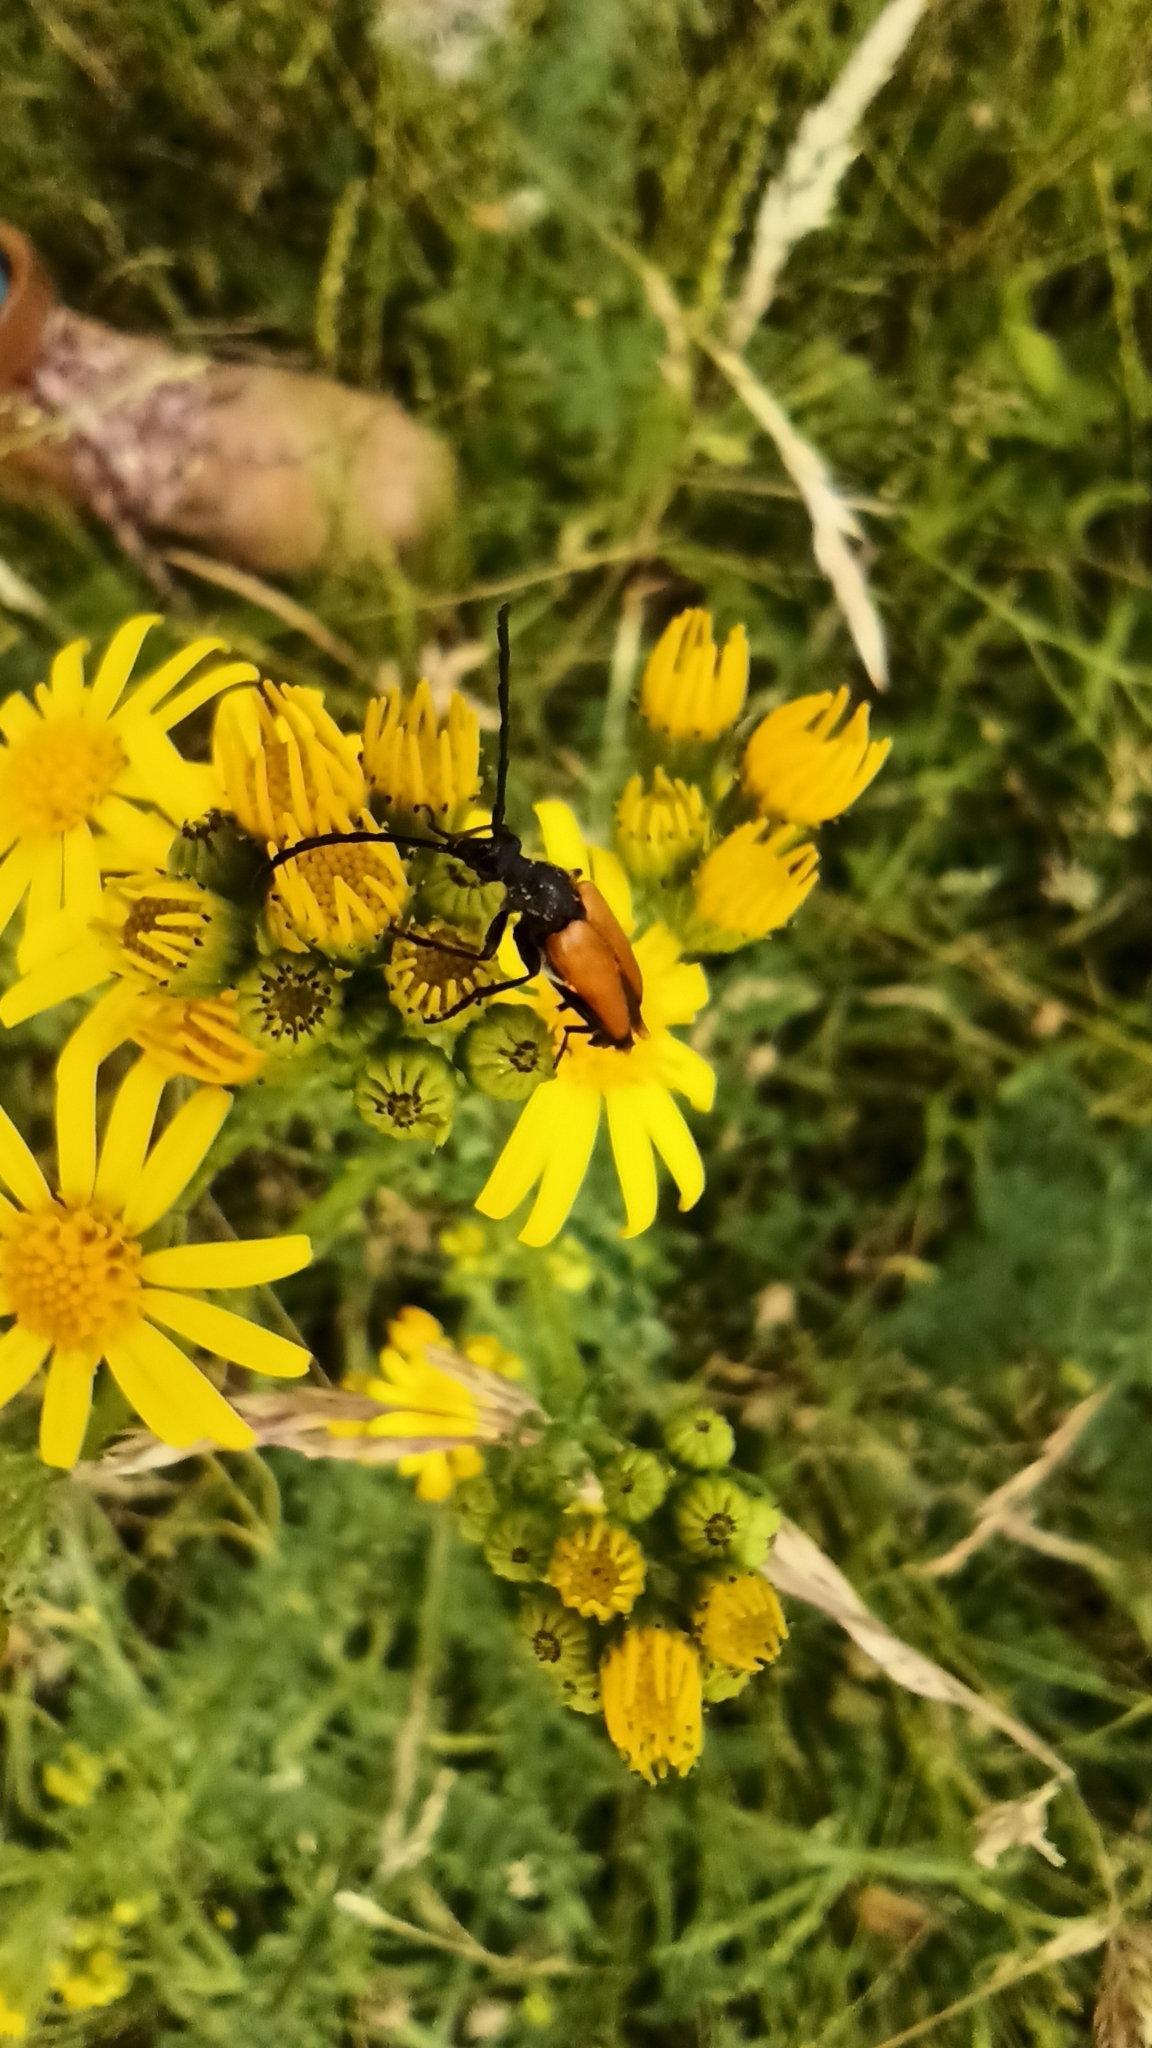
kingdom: Animalia
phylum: Arthropoda
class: Insecta
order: Coleoptera
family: Cerambycidae
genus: Paracorymbia
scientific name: Paracorymbia fulva
